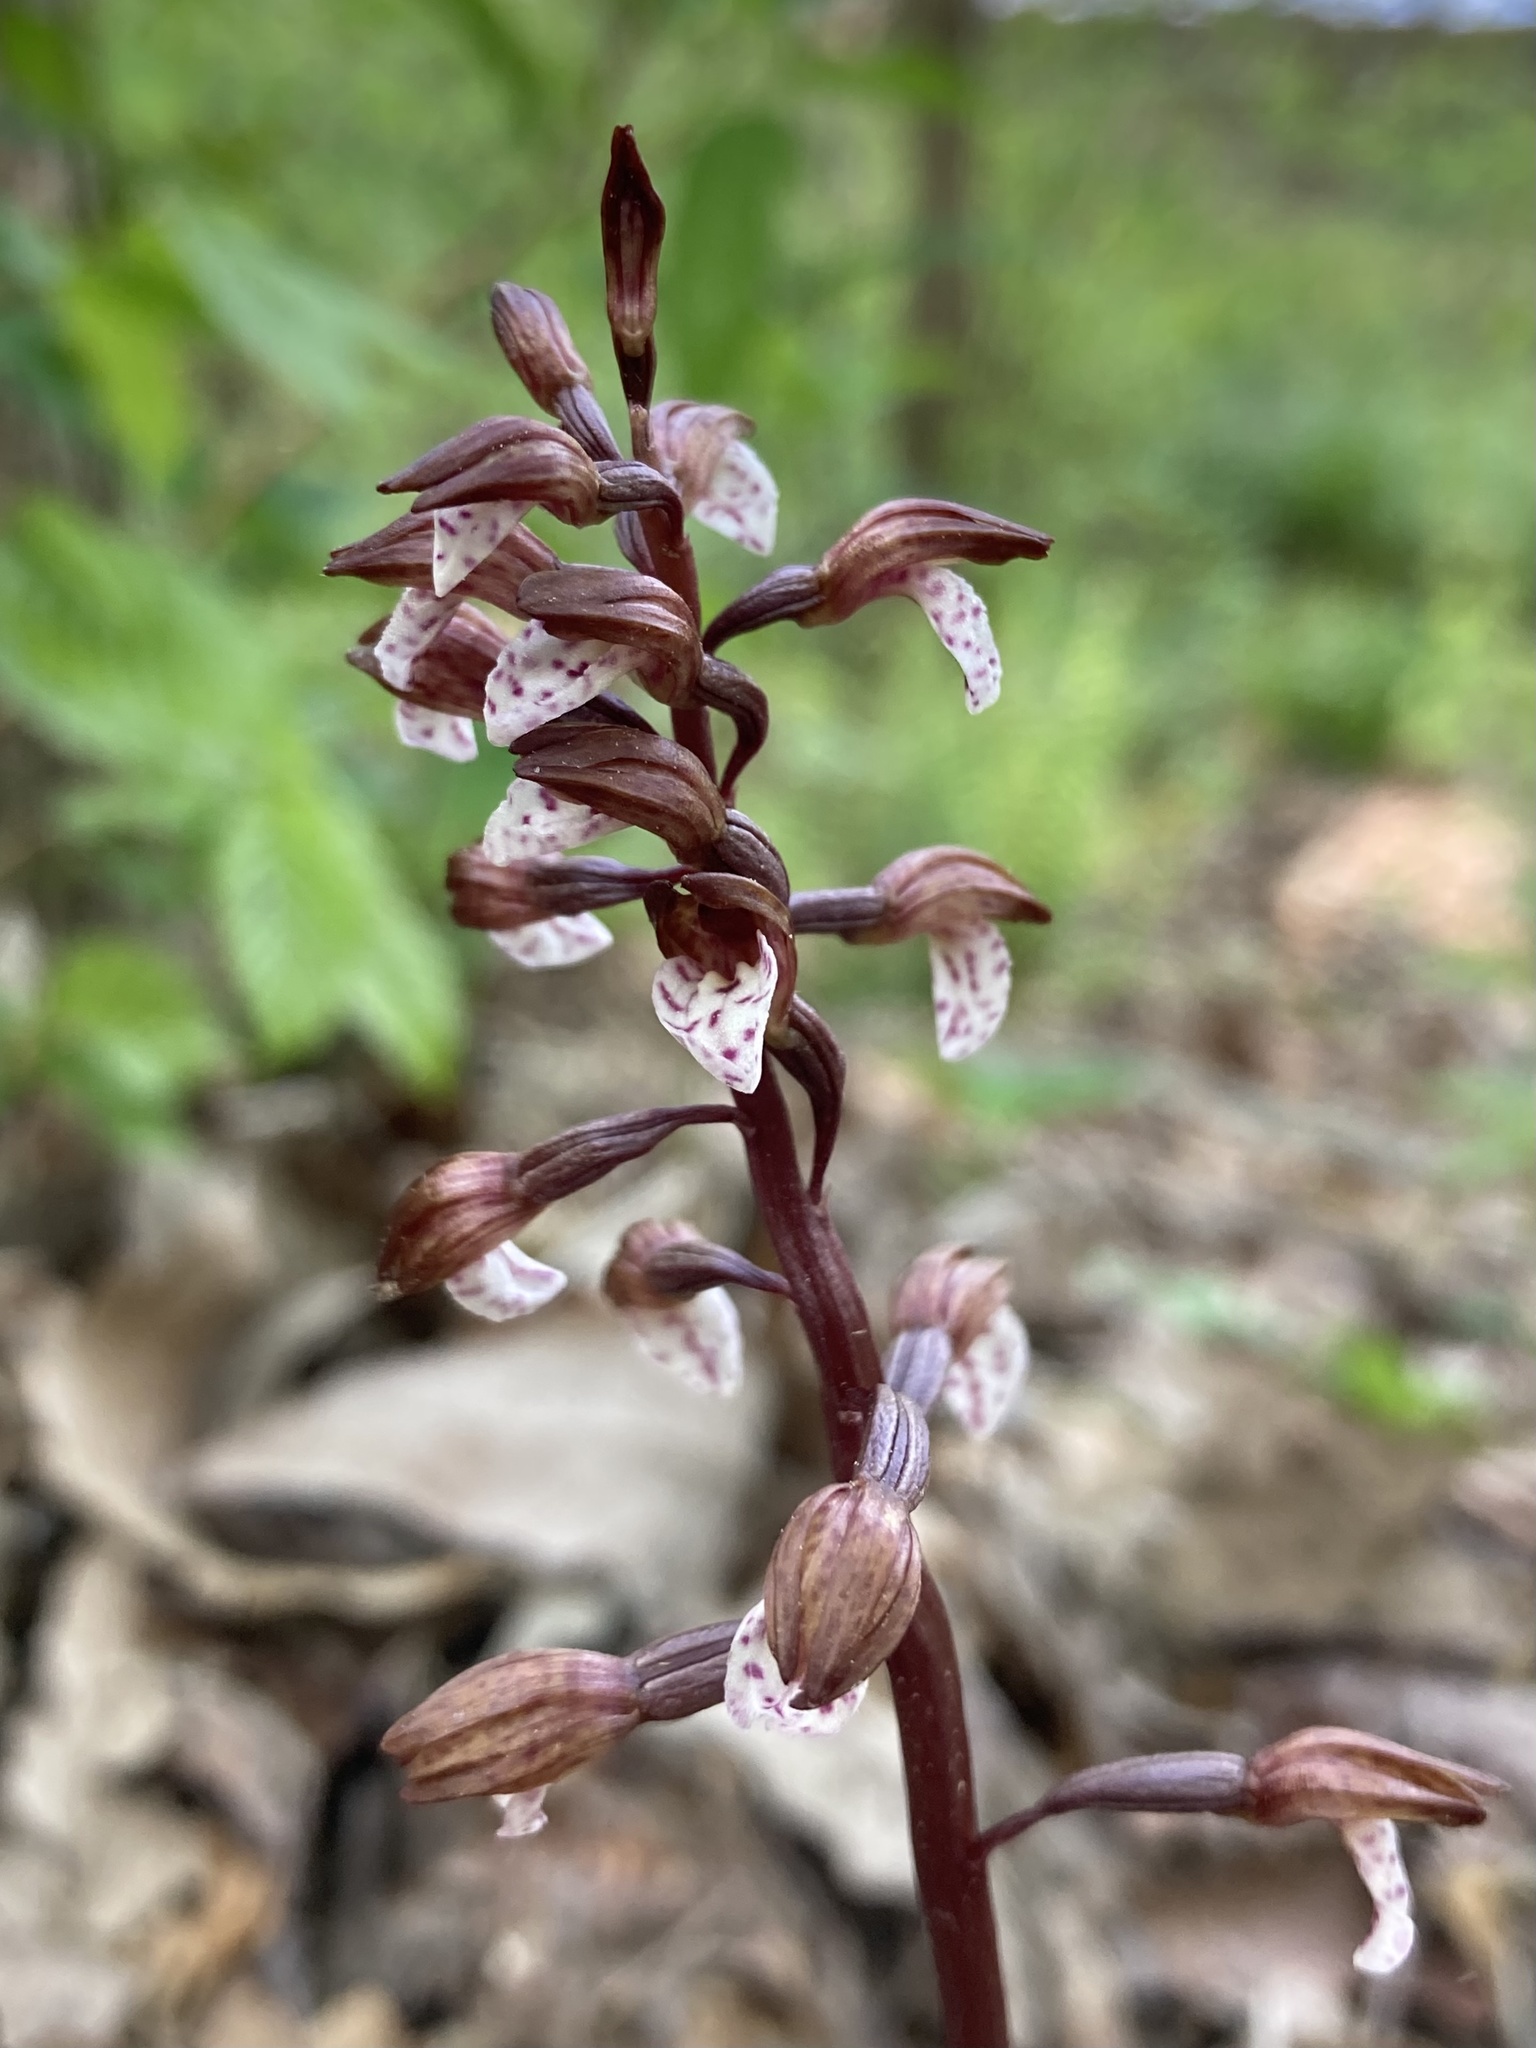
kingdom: Plantae
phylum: Tracheophyta
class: Liliopsida
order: Asparagales
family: Orchidaceae
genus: Corallorhiza
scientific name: Corallorhiza wisteriana
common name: Spring coralroot
